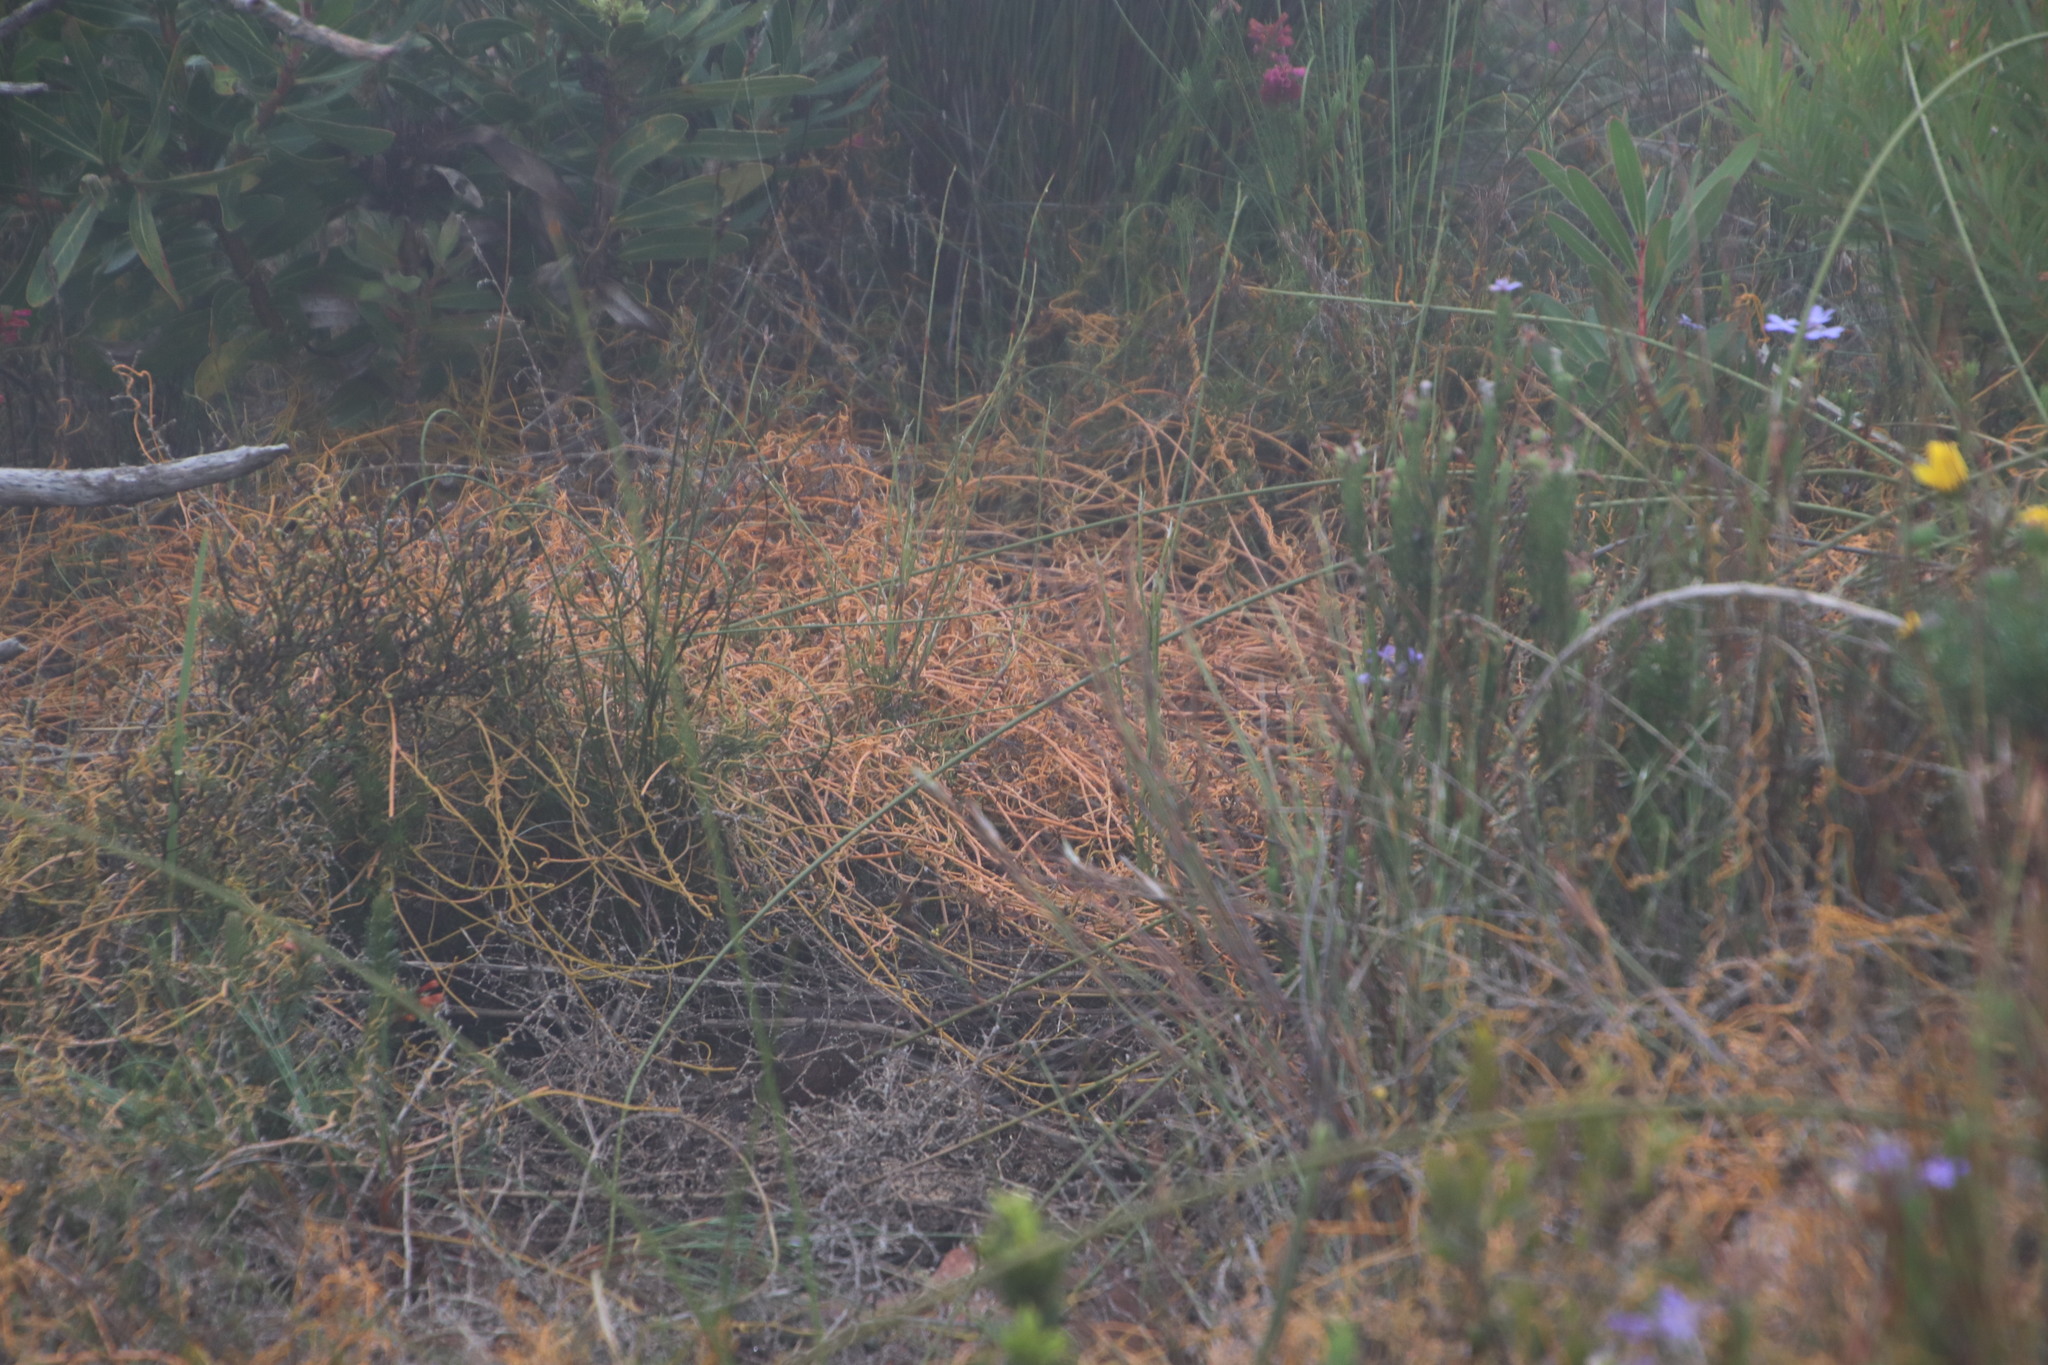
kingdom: Plantae
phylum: Tracheophyta
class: Magnoliopsida
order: Laurales
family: Lauraceae
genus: Cassytha
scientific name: Cassytha ciliolata
